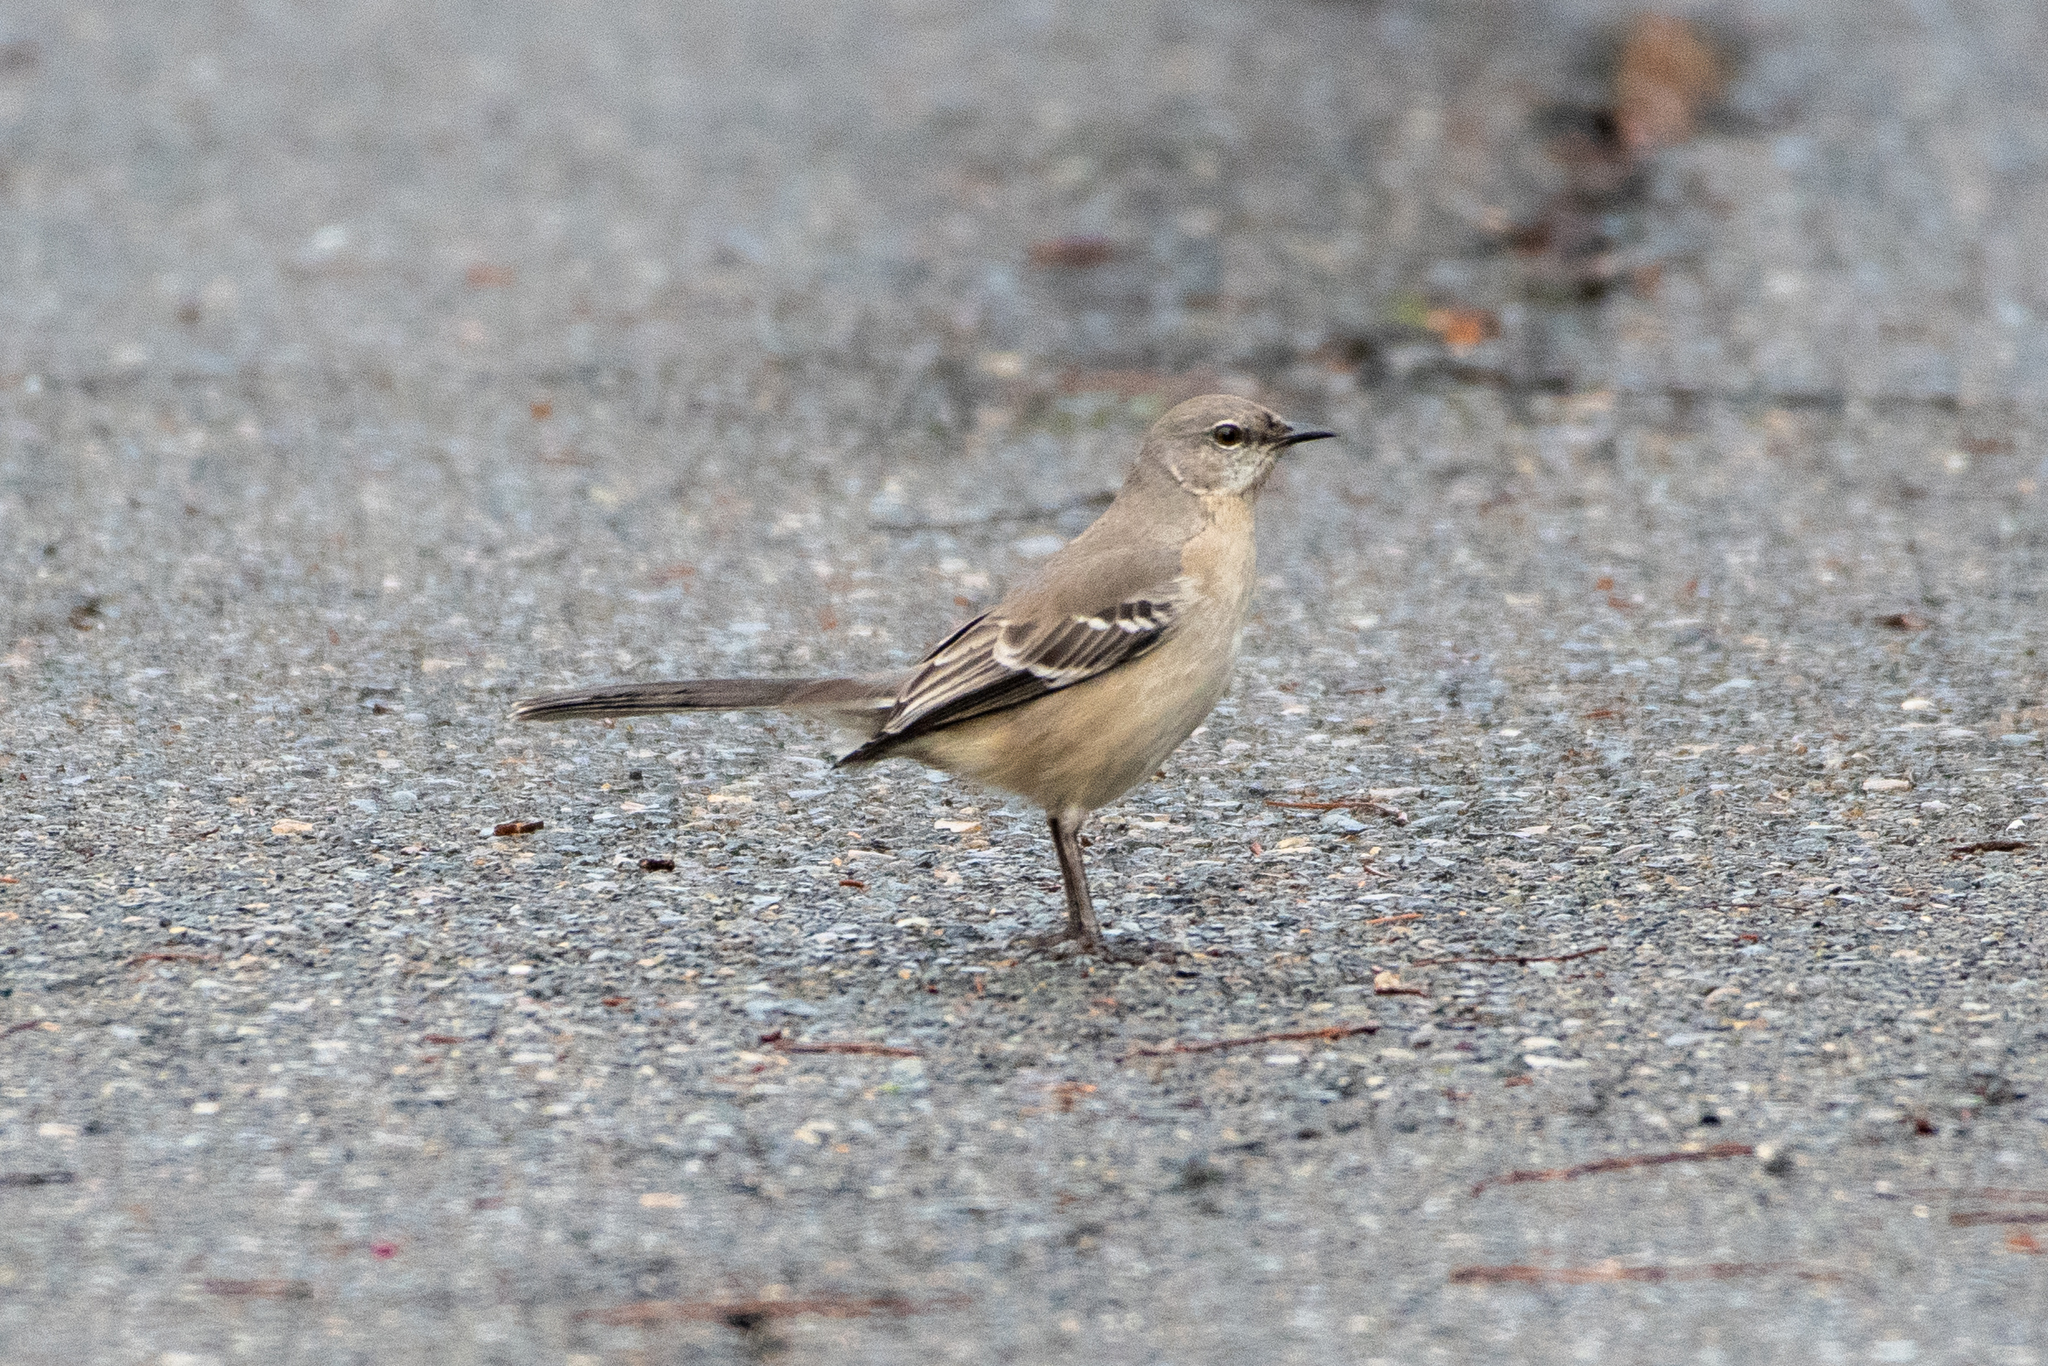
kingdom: Animalia
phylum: Chordata
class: Aves
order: Passeriformes
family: Mimidae
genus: Mimus
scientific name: Mimus polyglottos
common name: Northern mockingbird
